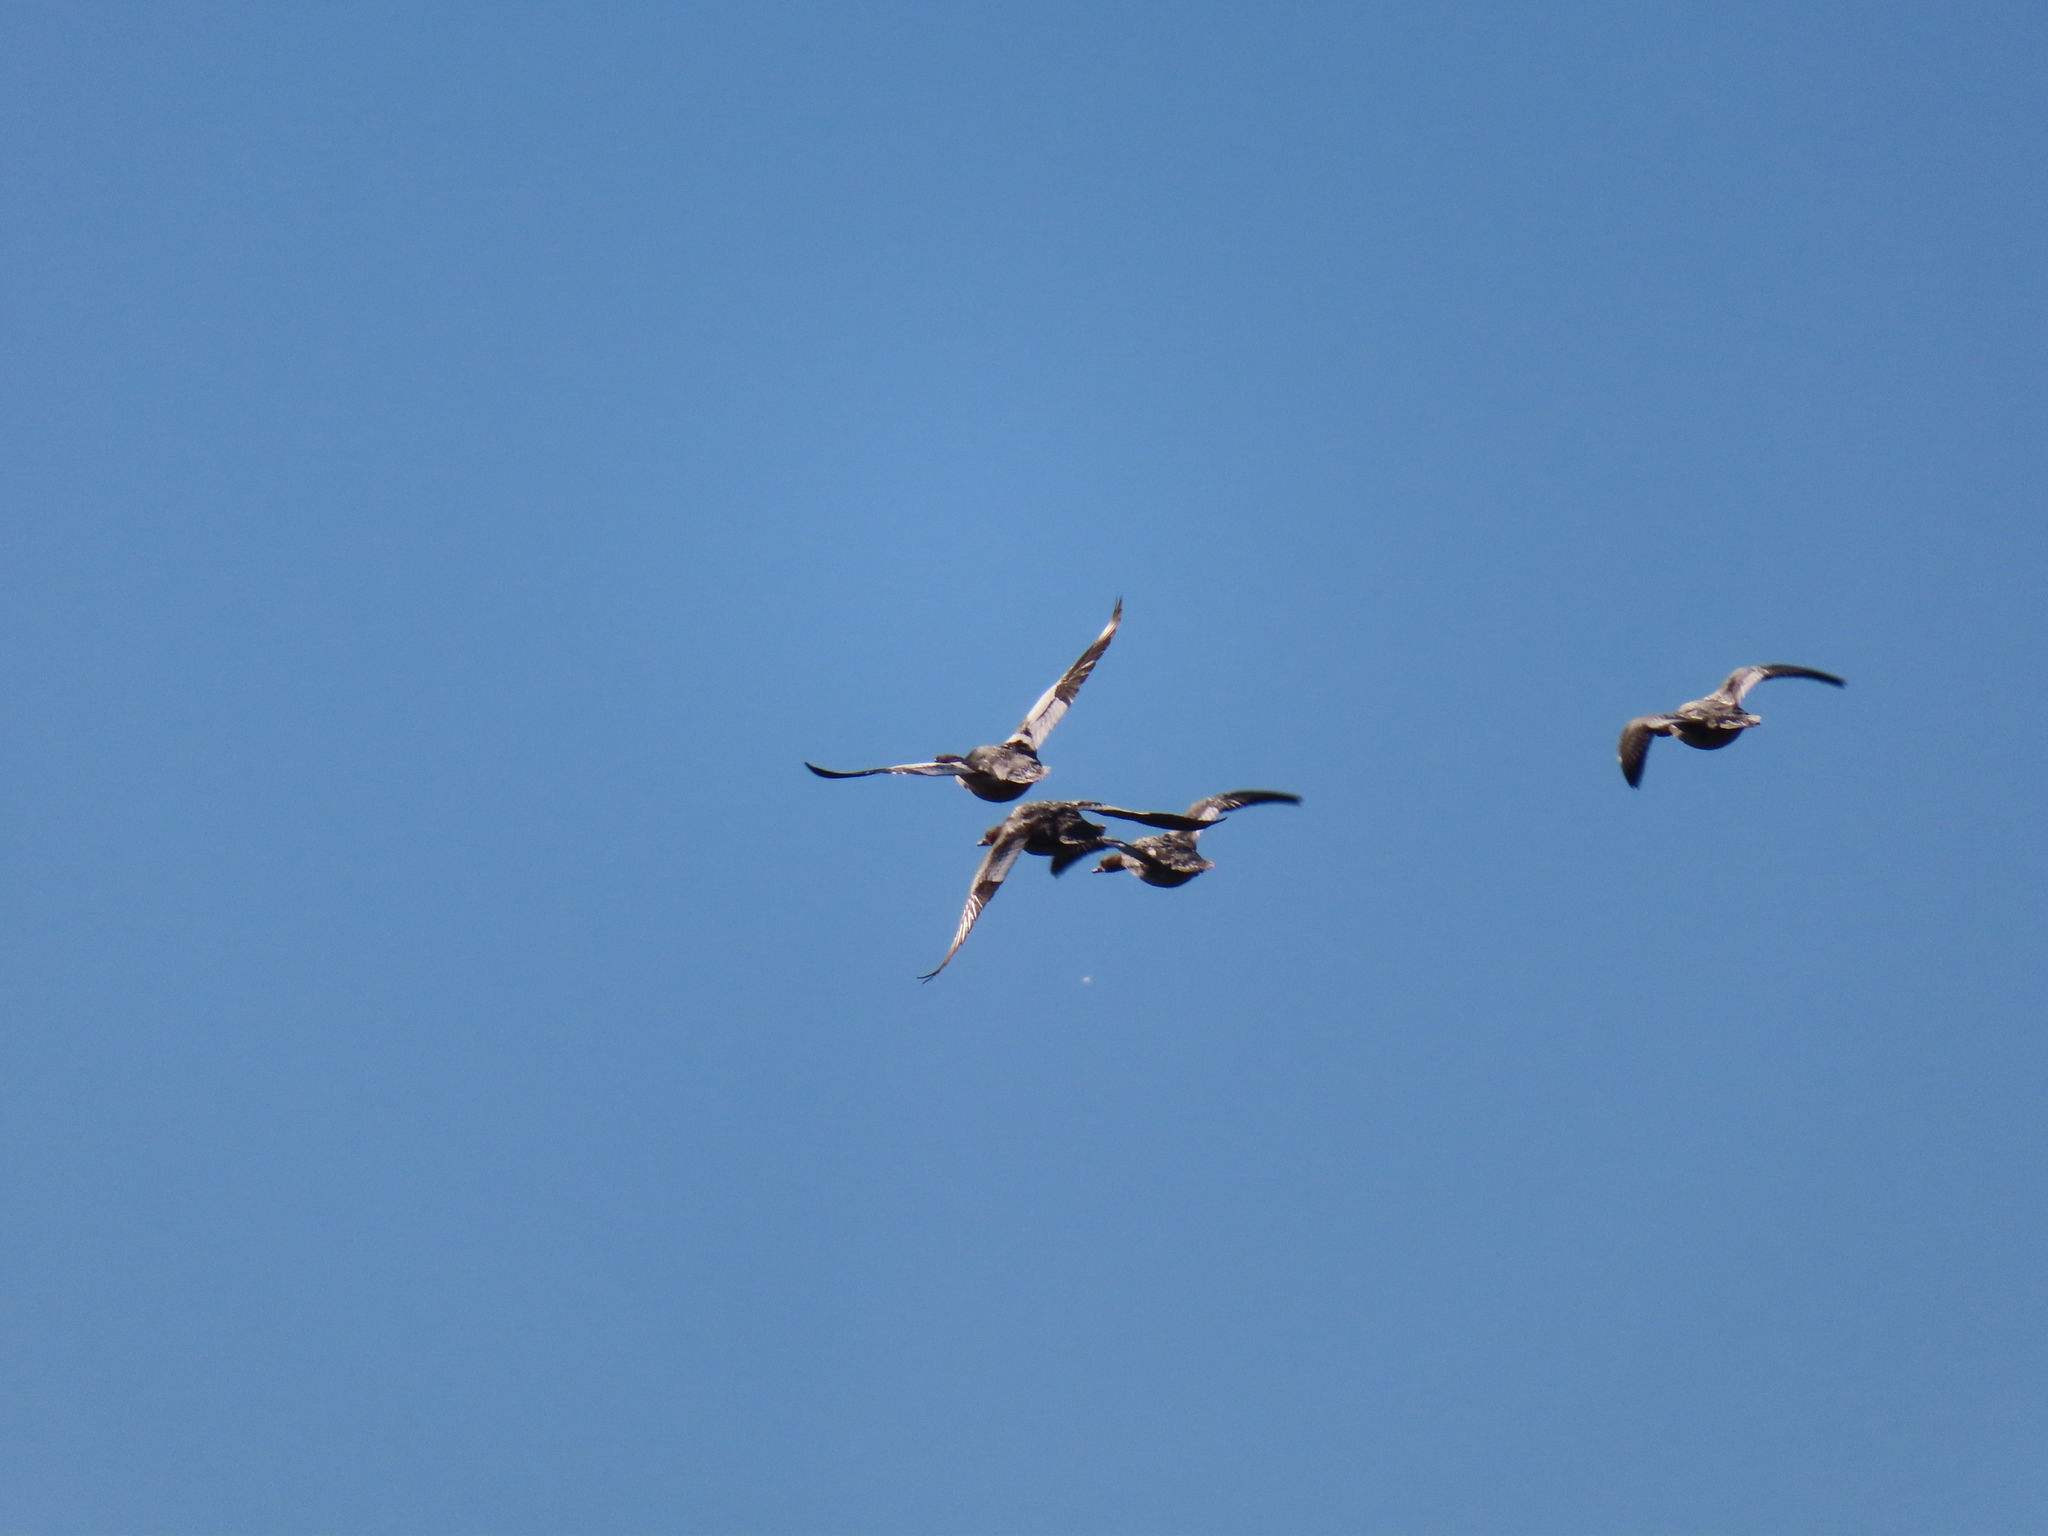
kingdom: Animalia
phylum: Chordata
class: Aves
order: Anseriformes
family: Anatidae
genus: Anas
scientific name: Anas acuta
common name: Northern pintail
